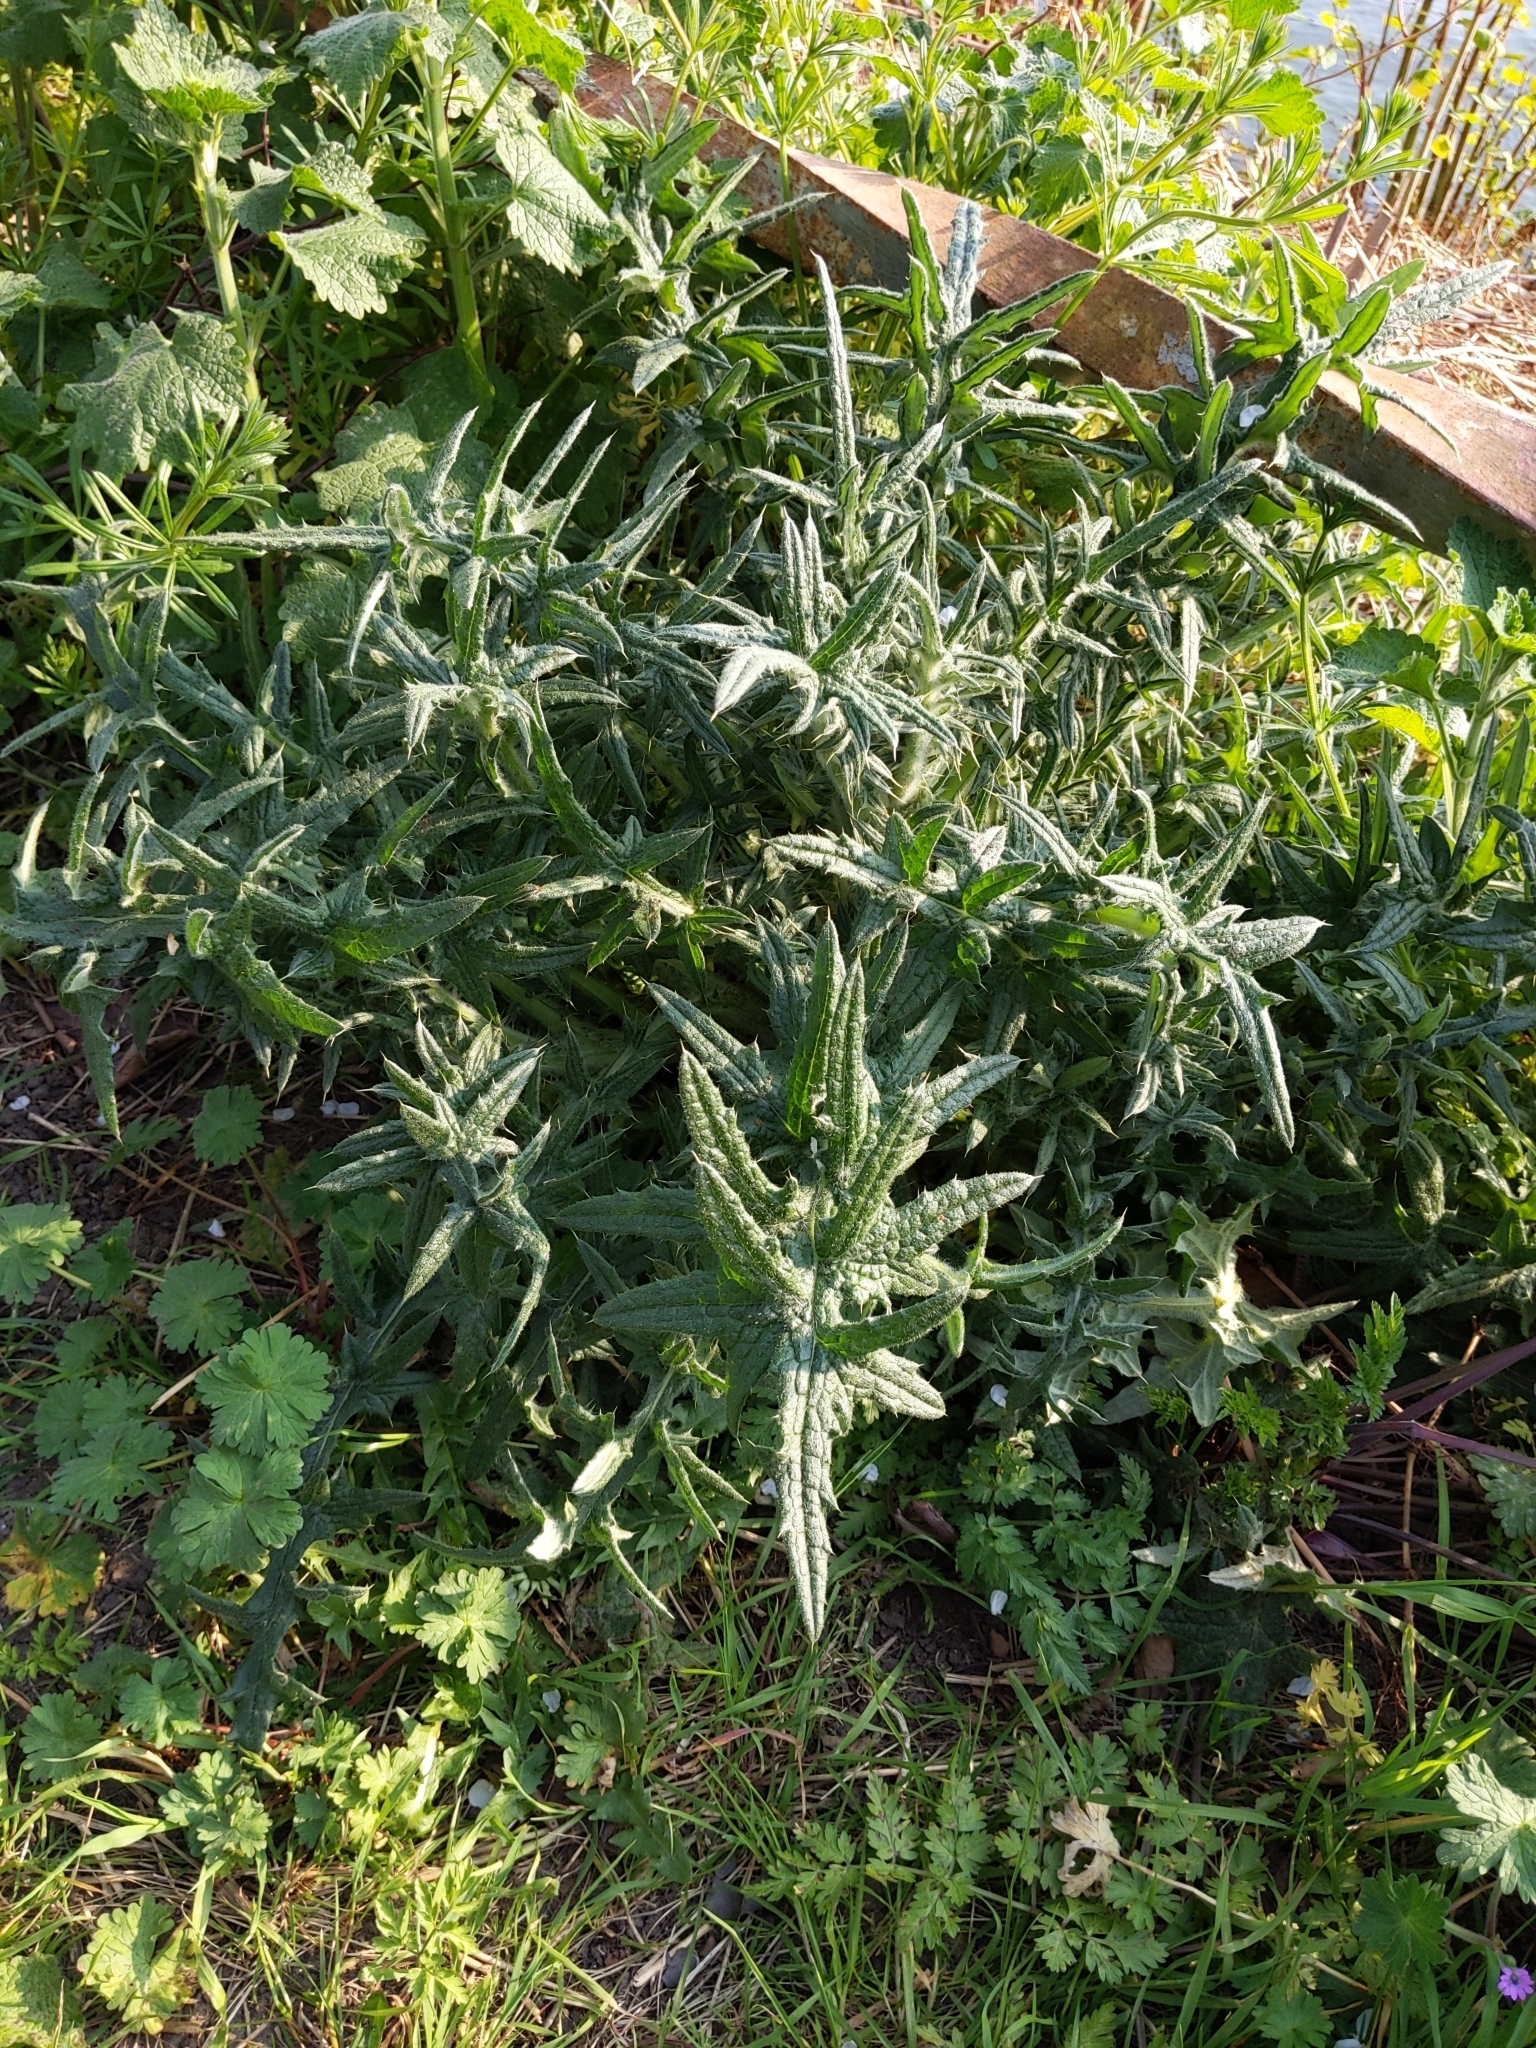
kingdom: Plantae
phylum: Tracheophyta
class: Magnoliopsida
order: Asterales
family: Asteraceae
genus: Cirsium
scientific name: Cirsium vulgare
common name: Bull thistle
